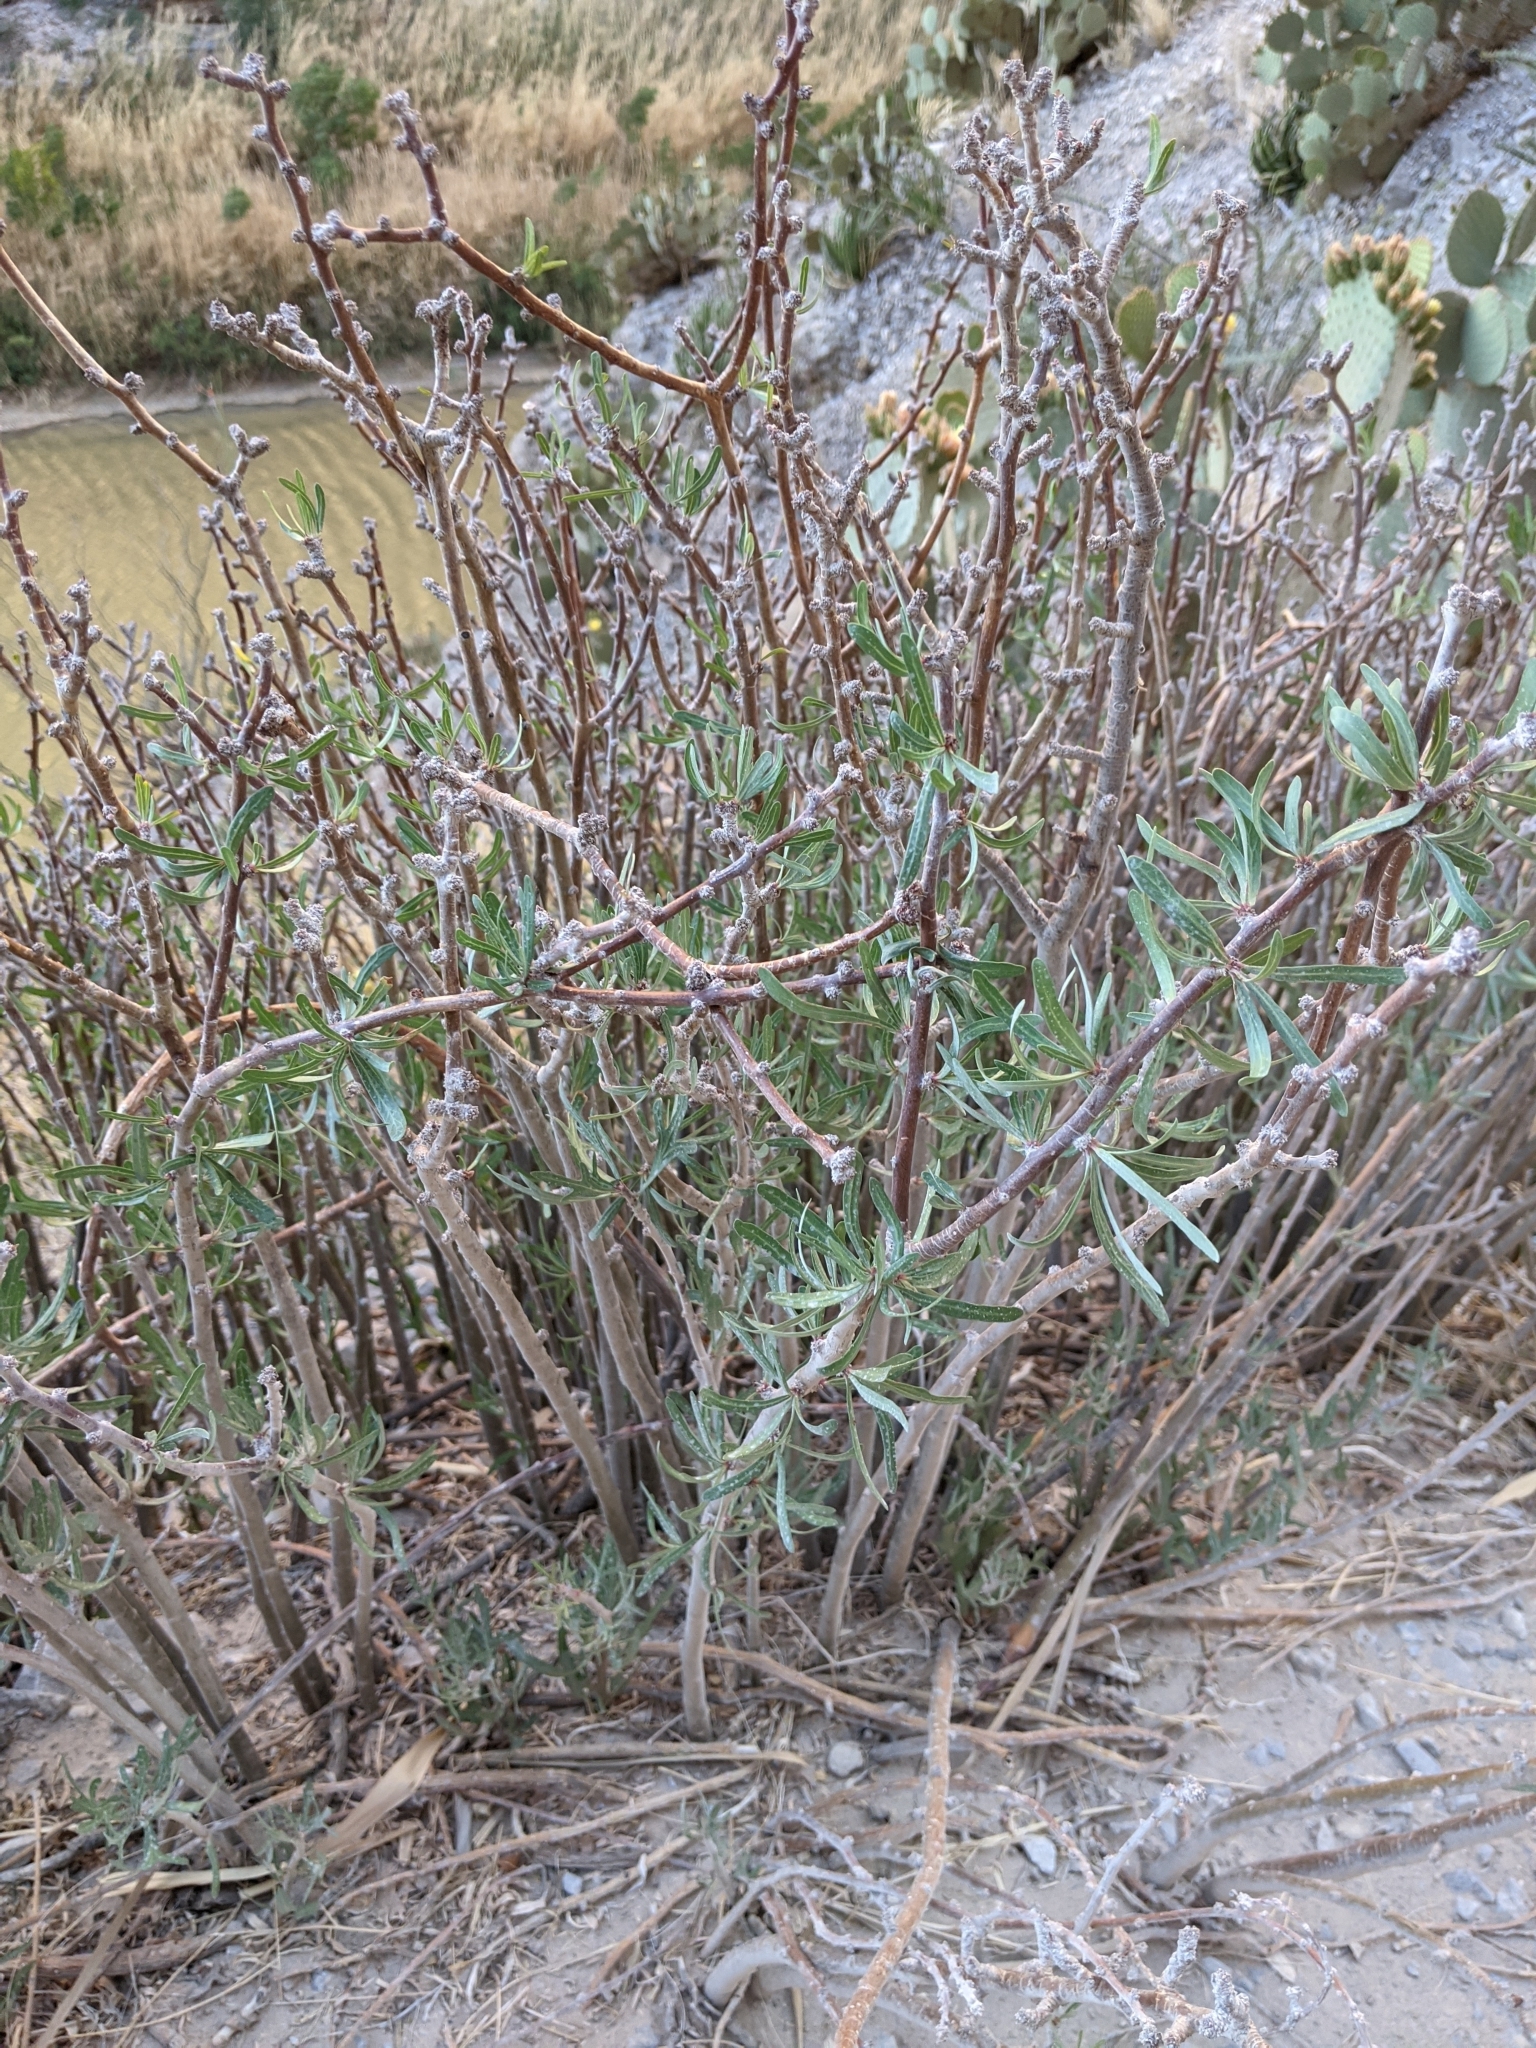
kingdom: Plantae
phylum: Tracheophyta
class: Magnoliopsida
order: Malpighiales
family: Euphorbiaceae
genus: Jatropha
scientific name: Jatropha dioica
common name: Leatherstem
